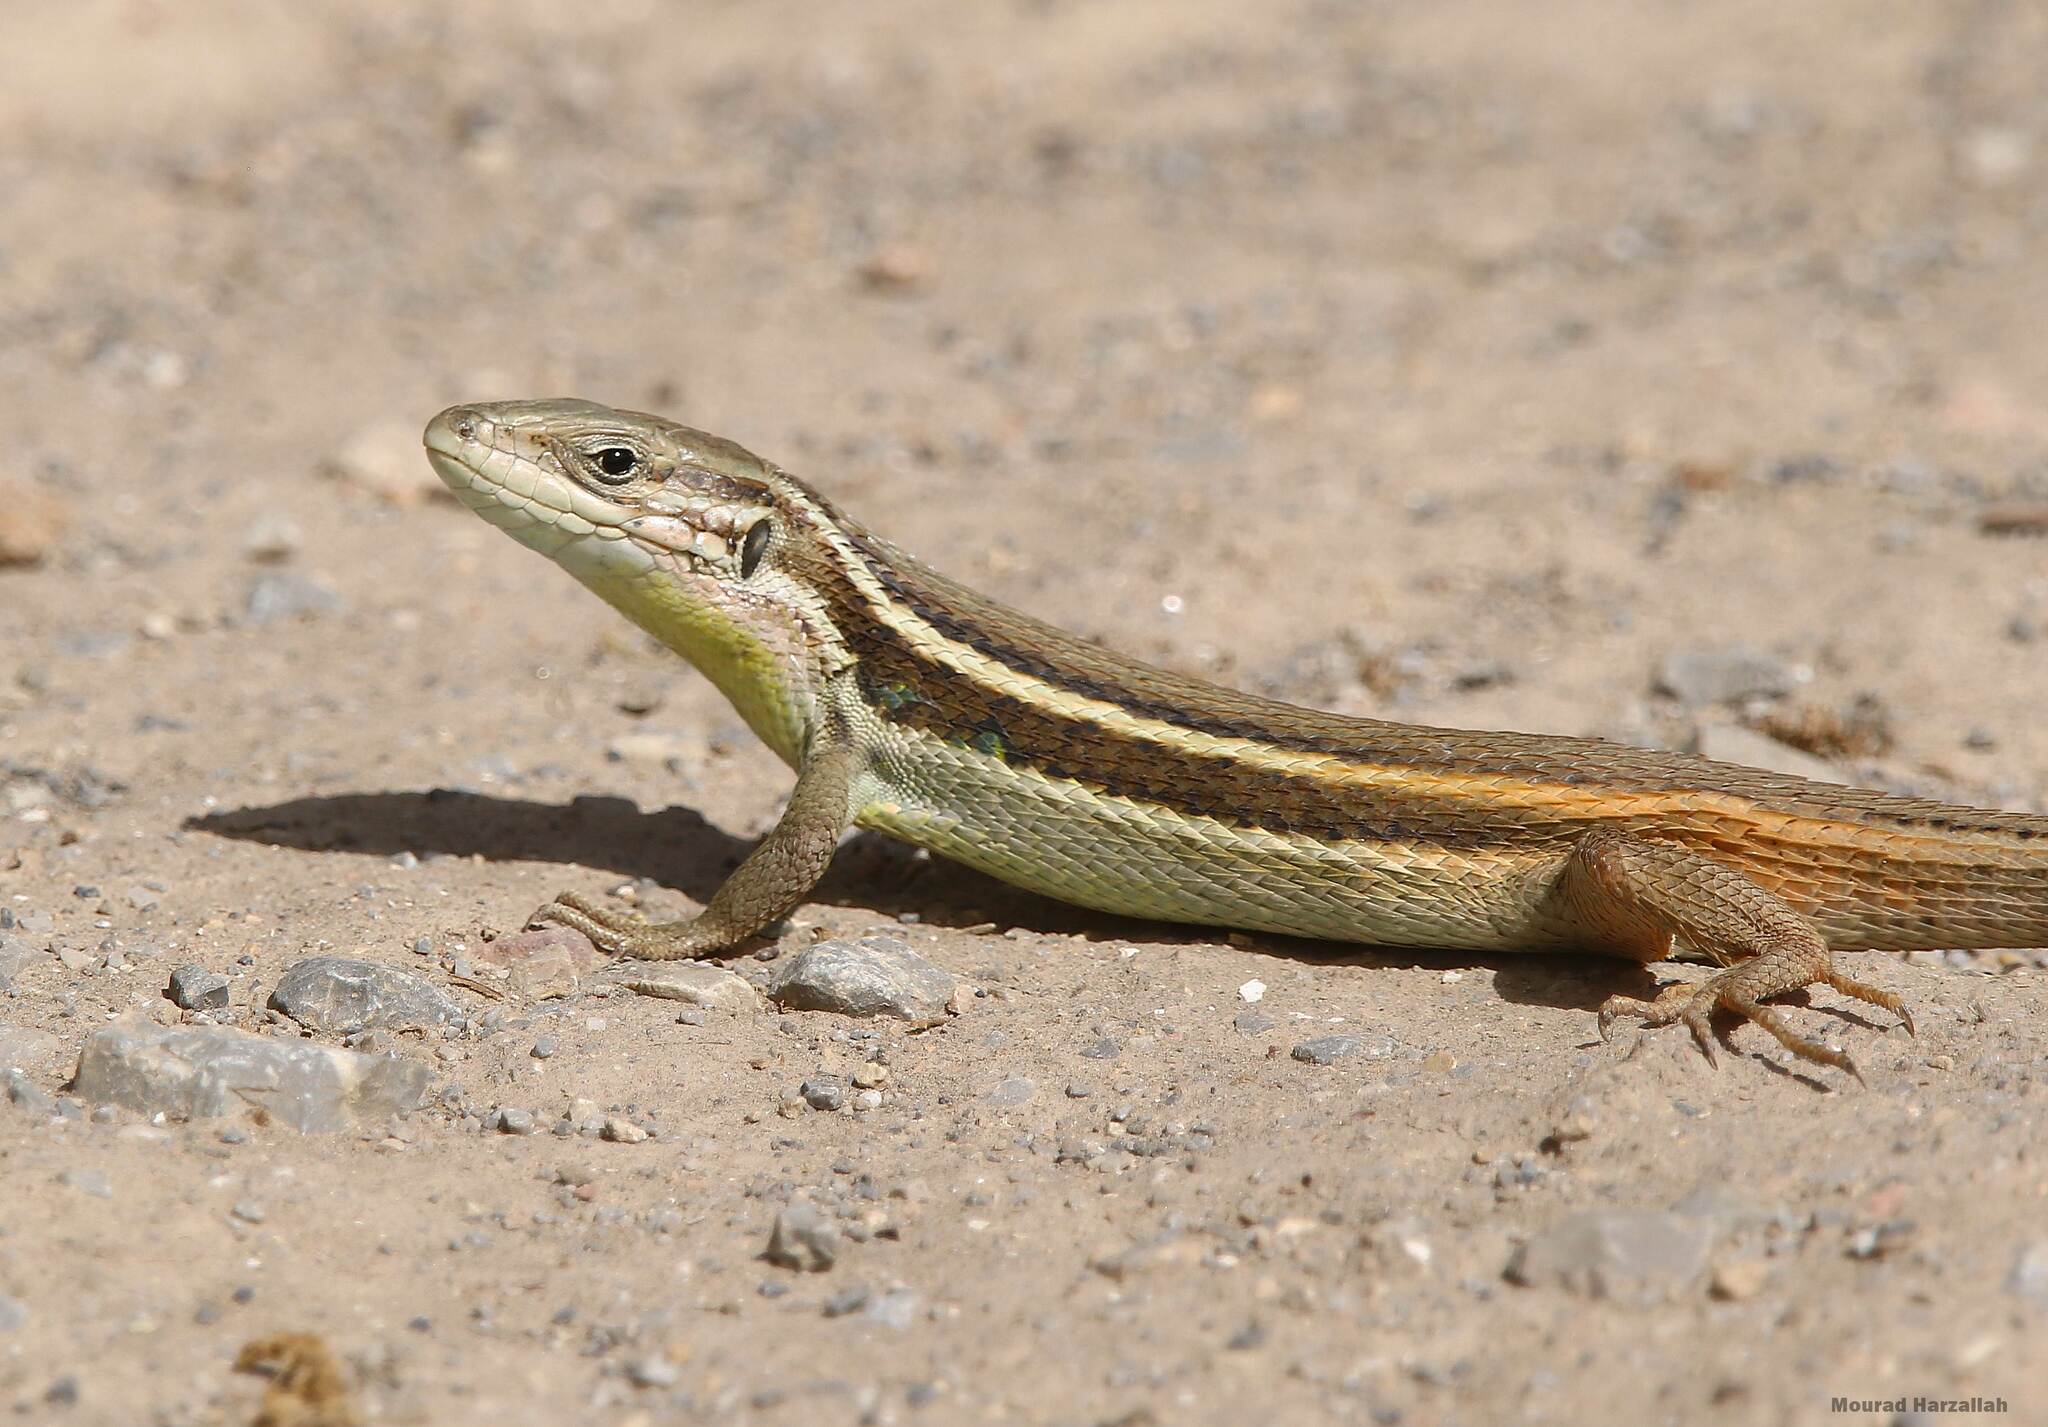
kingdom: Animalia
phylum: Chordata
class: Squamata
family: Lacertidae
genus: Psammodromus
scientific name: Psammodromus algirus
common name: Algerian psammodromus
